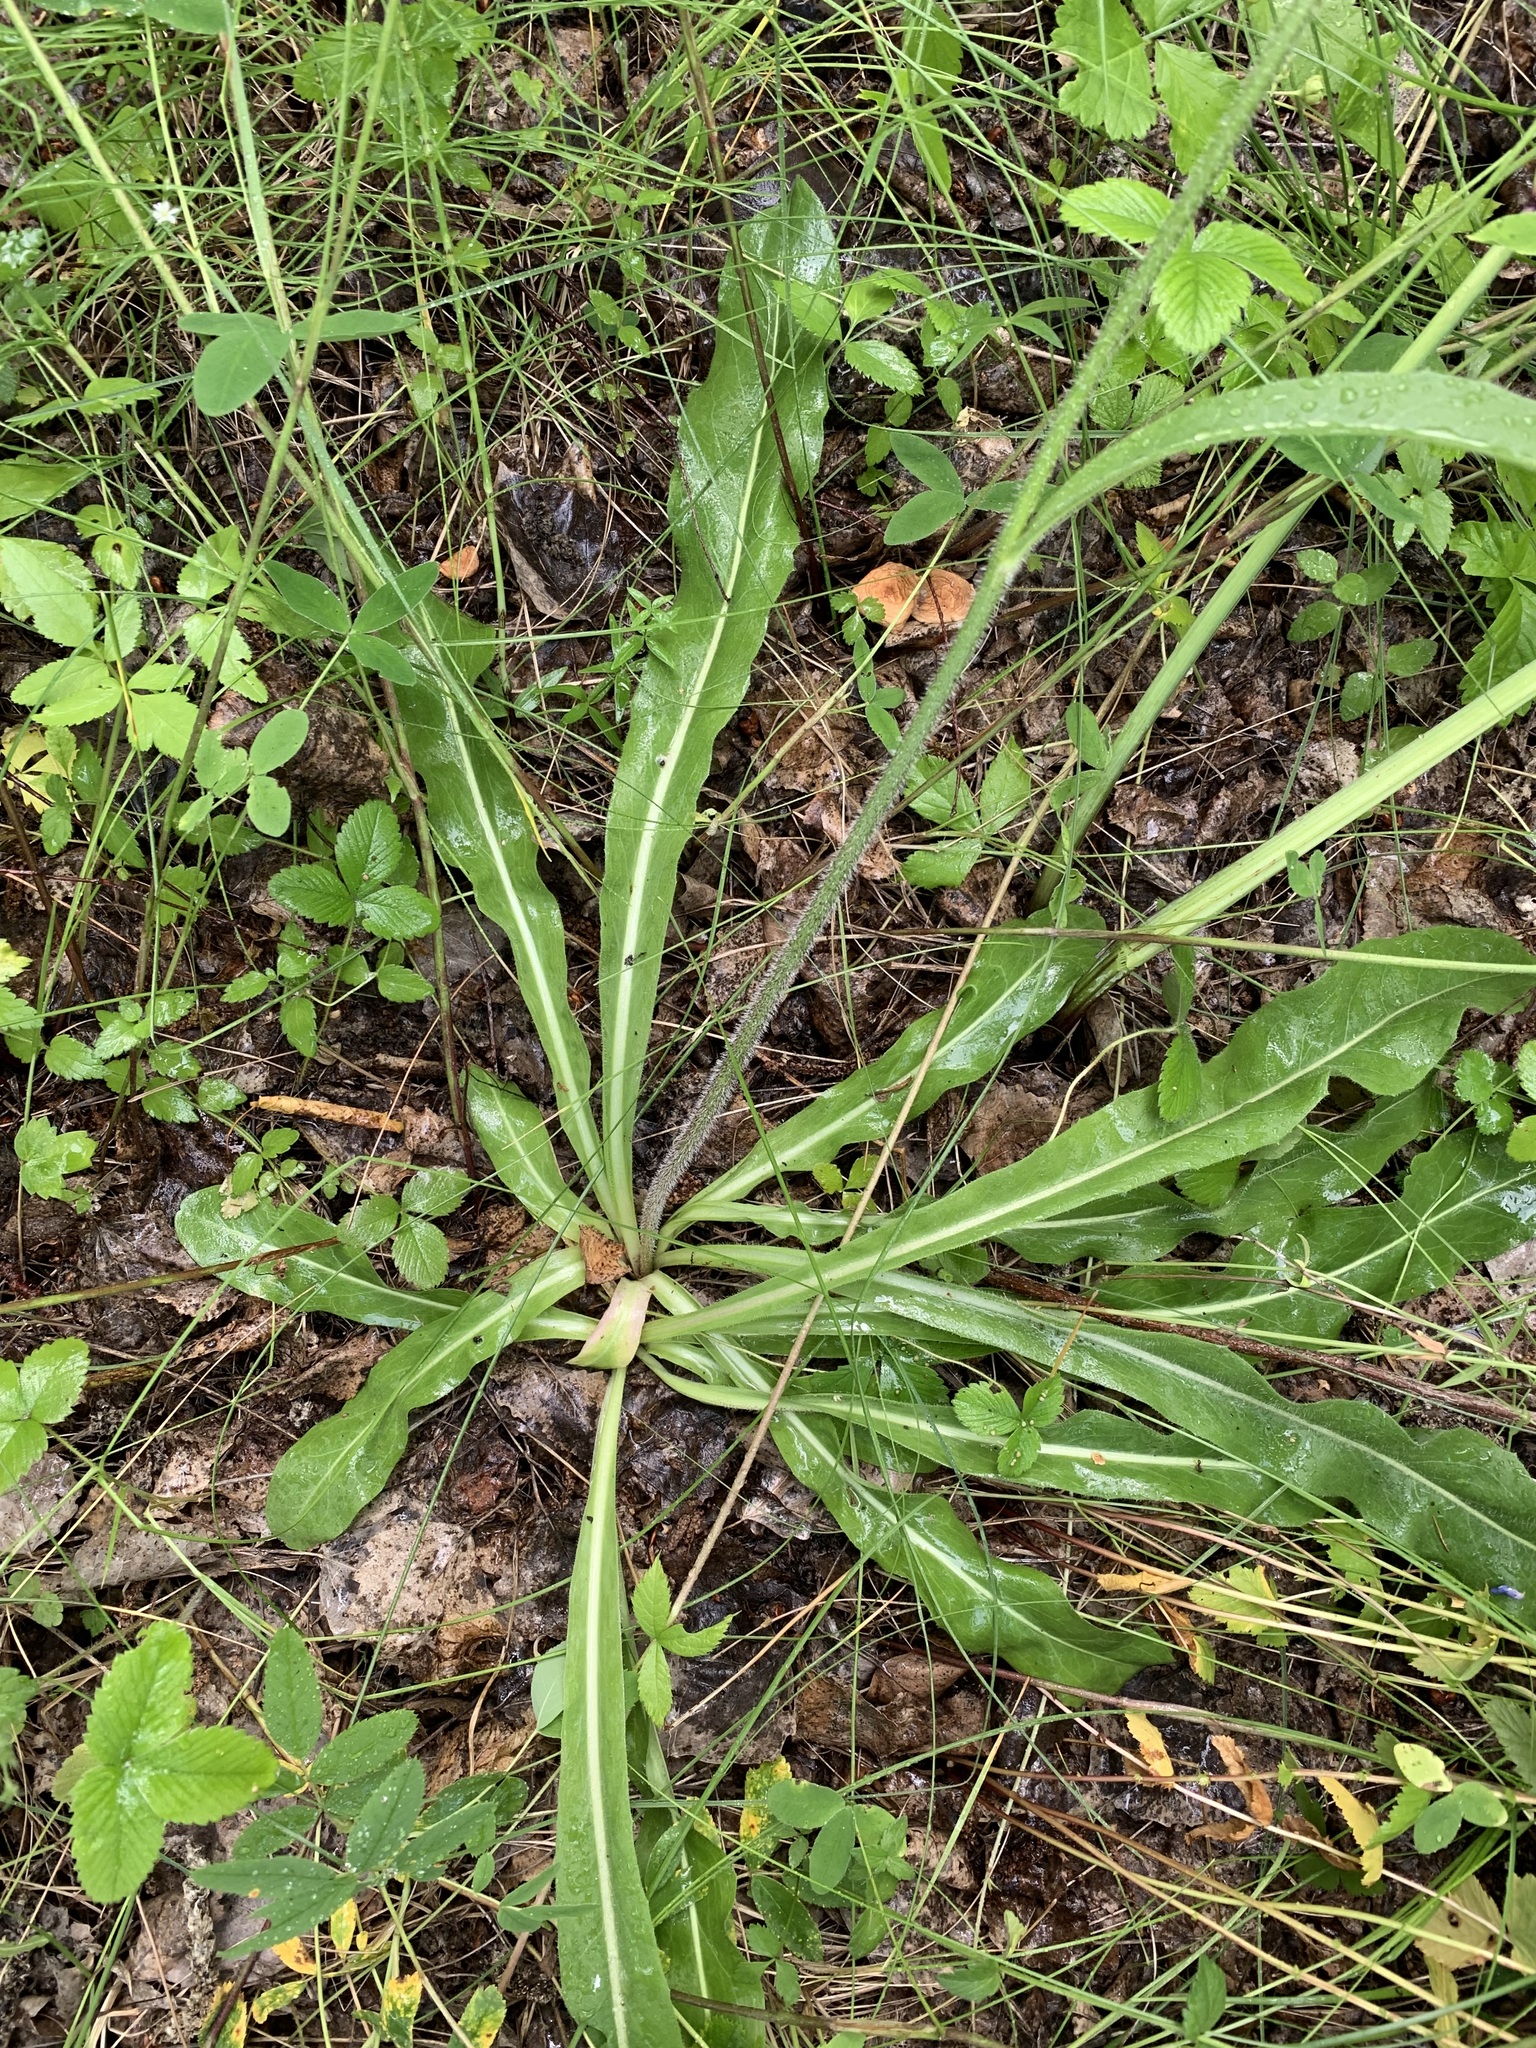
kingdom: Plantae
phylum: Tracheophyta
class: Magnoliopsida
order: Asterales
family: Asteraceae
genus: Trommsdorffia
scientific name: Trommsdorffia maculata
